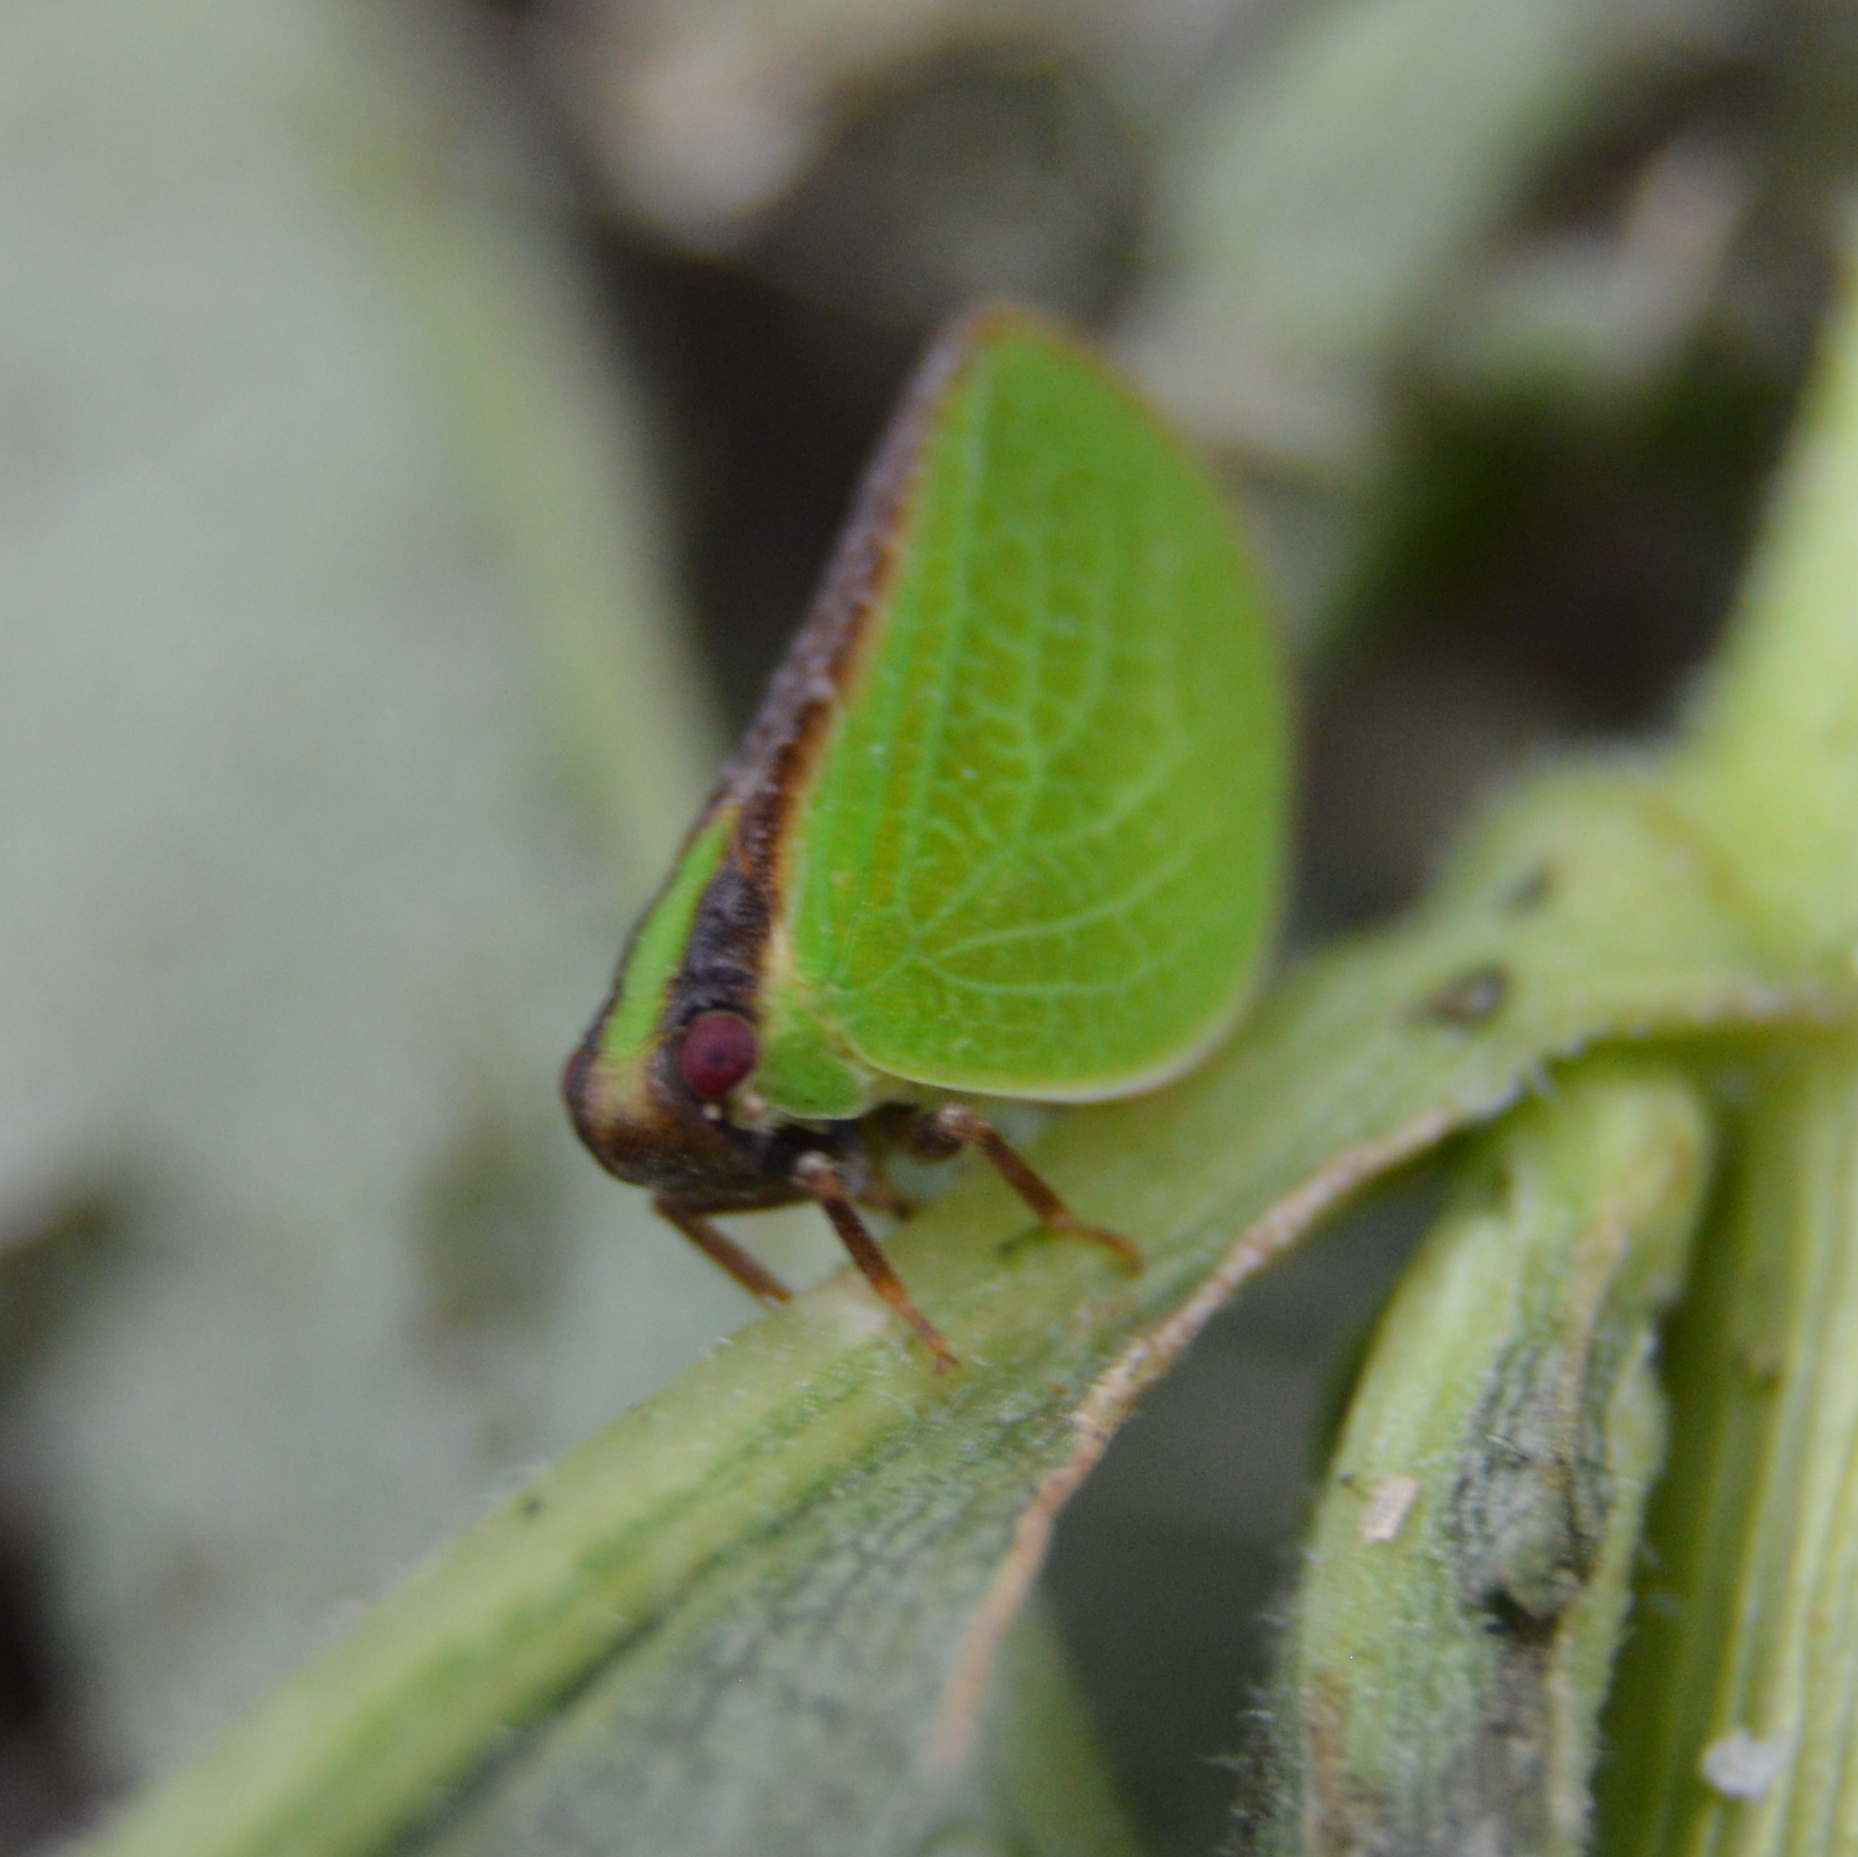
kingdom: Animalia
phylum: Arthropoda
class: Insecta
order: Hemiptera
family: Acanaloniidae
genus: Acanalonia
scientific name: Acanalonia bivittata
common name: Two-striped planthopper
